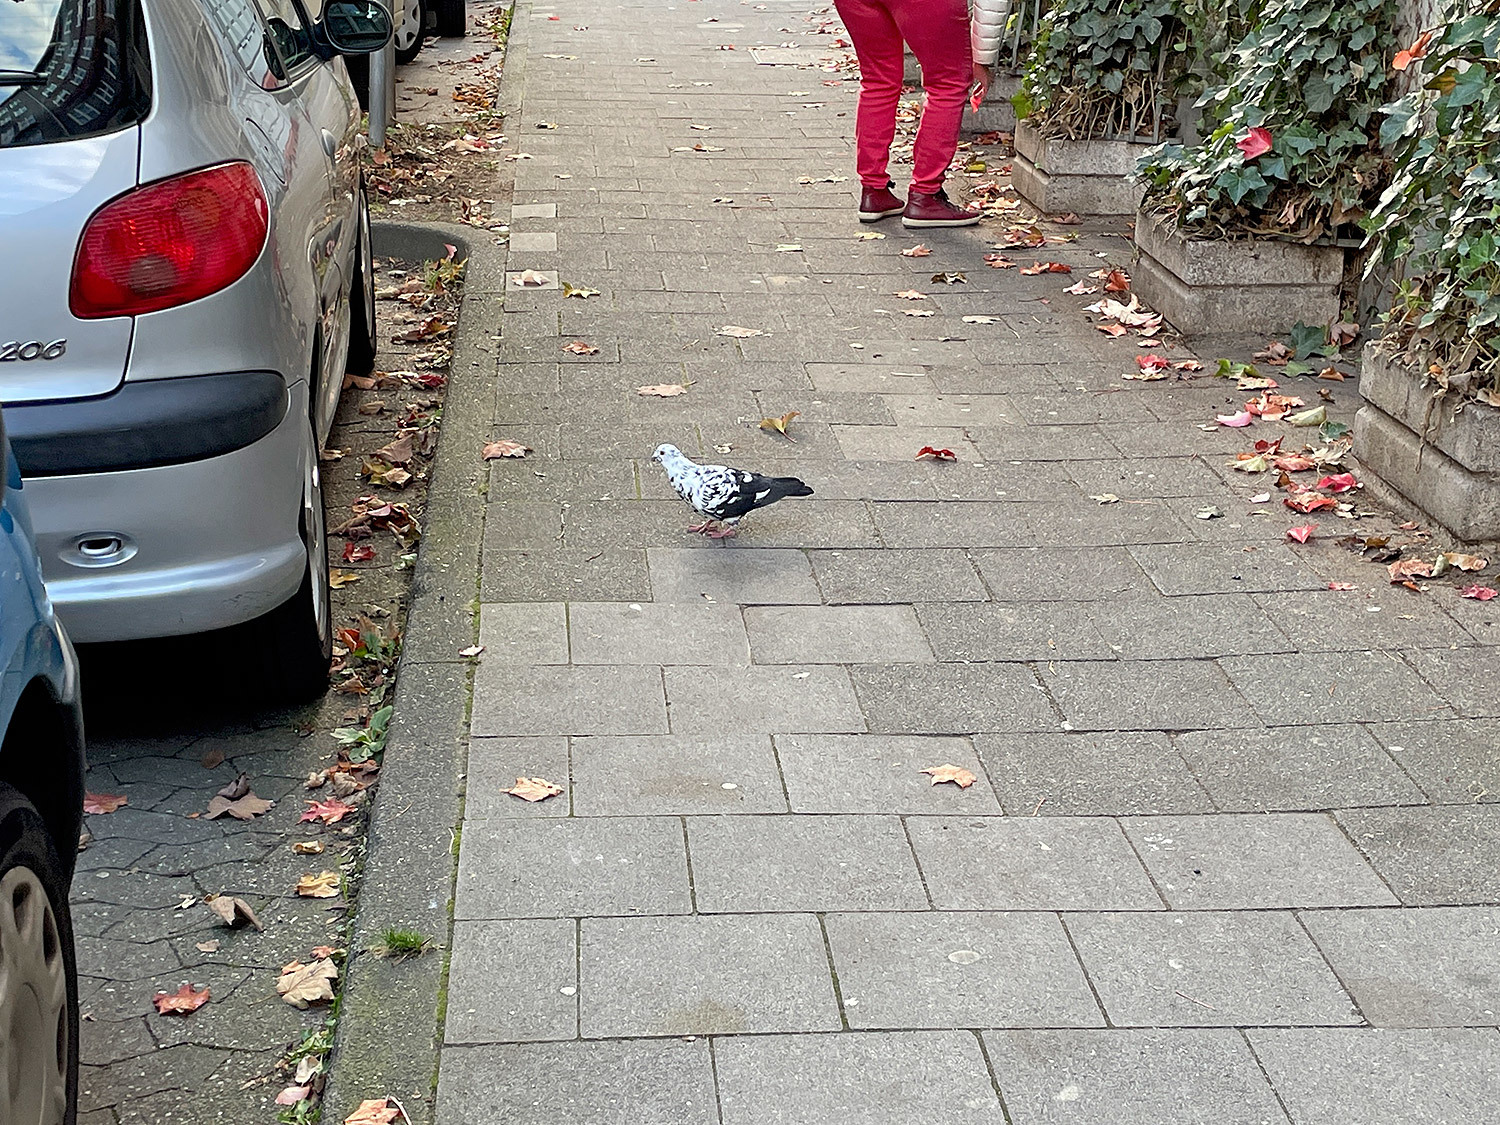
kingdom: Animalia
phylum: Chordata
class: Aves
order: Columbiformes
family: Columbidae
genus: Columba
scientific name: Columba livia
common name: Rock pigeon
